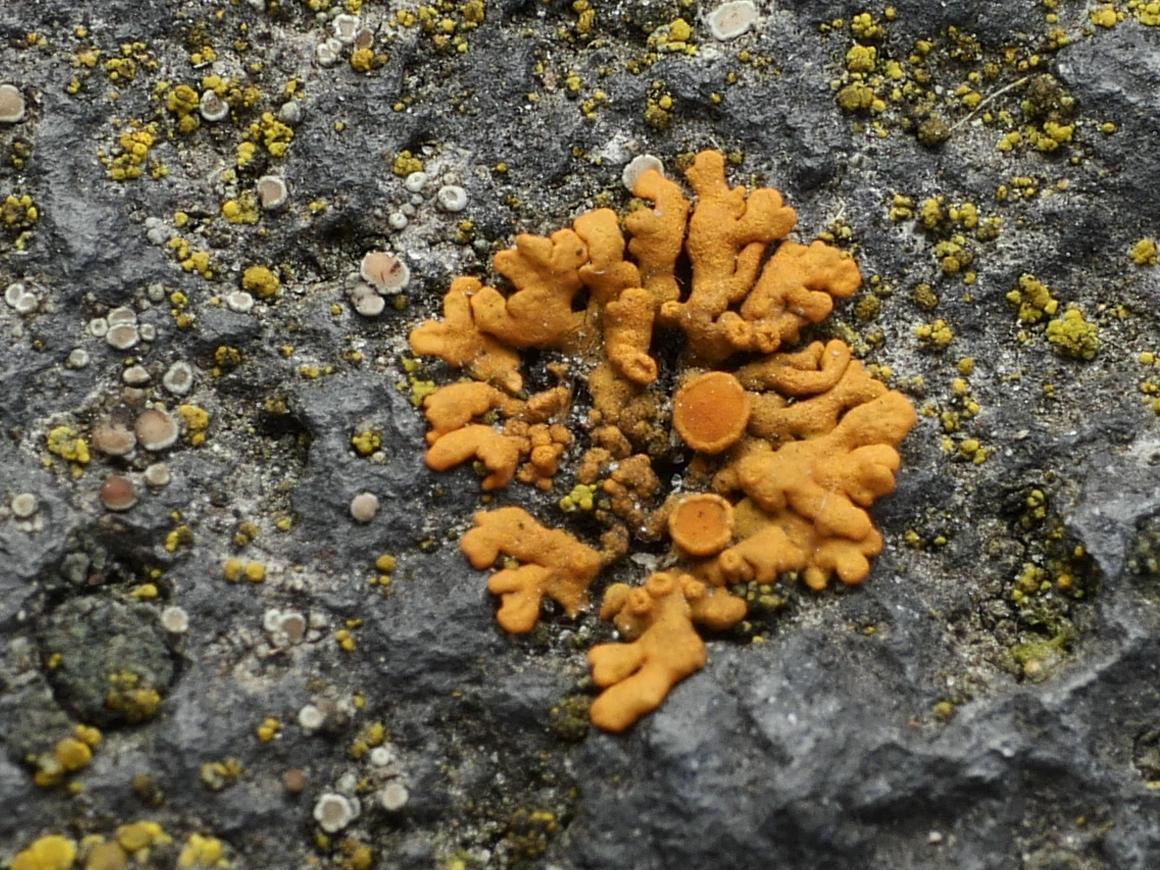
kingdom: Fungi
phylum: Ascomycota
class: Lecanoromycetes
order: Teloschistales
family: Teloschistaceae
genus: Xanthoria
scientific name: Xanthoria elegans
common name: Elegant sunburst lichen
